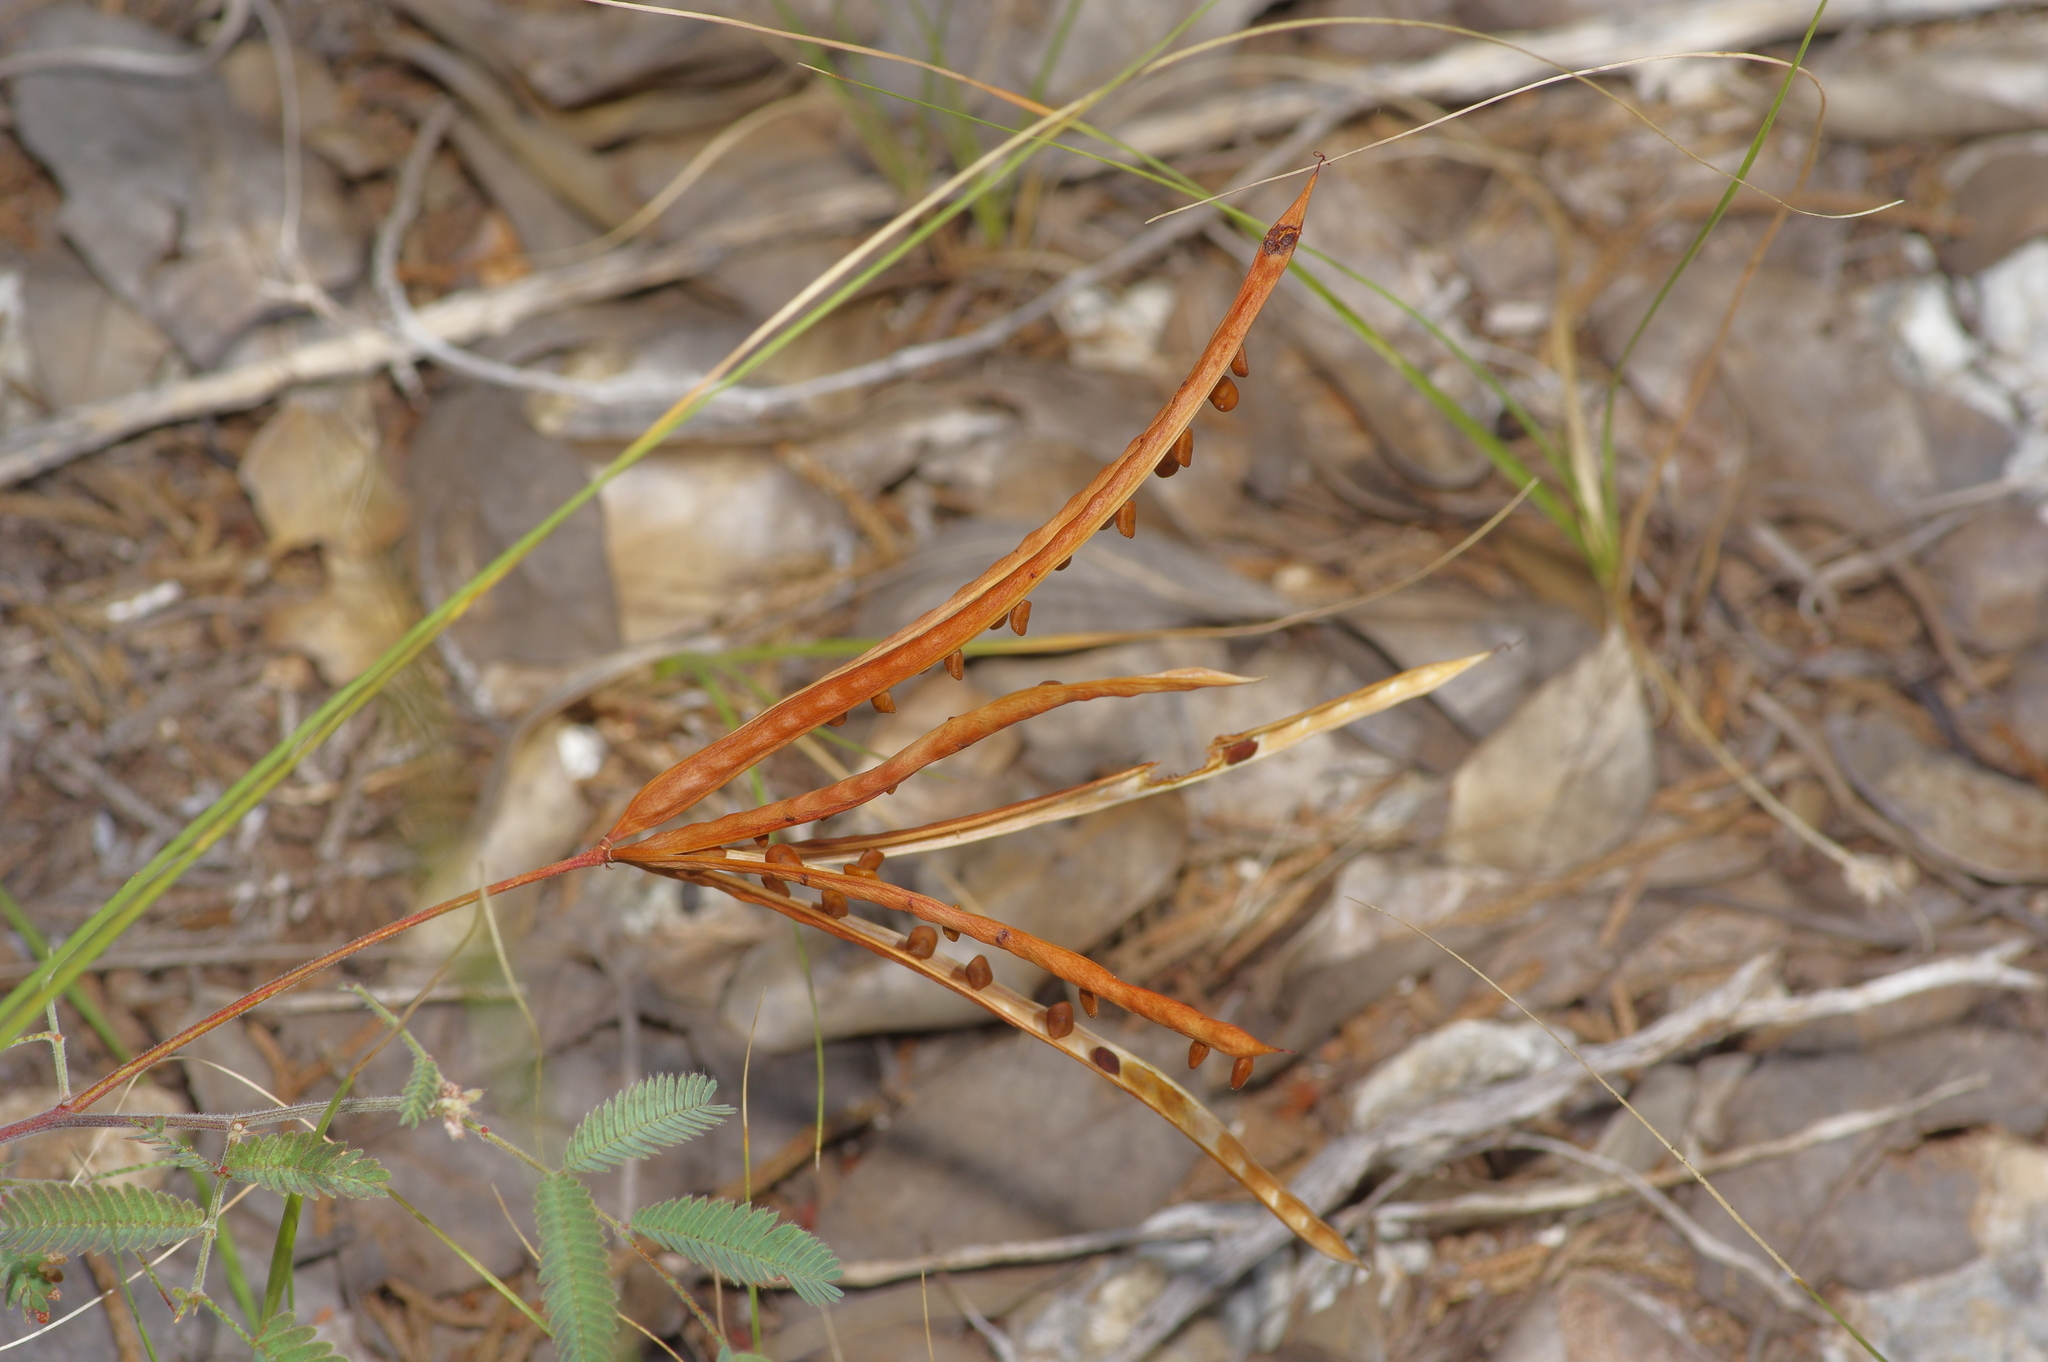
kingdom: Plantae
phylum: Tracheophyta
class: Magnoliopsida
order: Fabales
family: Fabaceae
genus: Desmanthus
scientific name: Desmanthus velutinus
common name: Velvet bundle-flower
